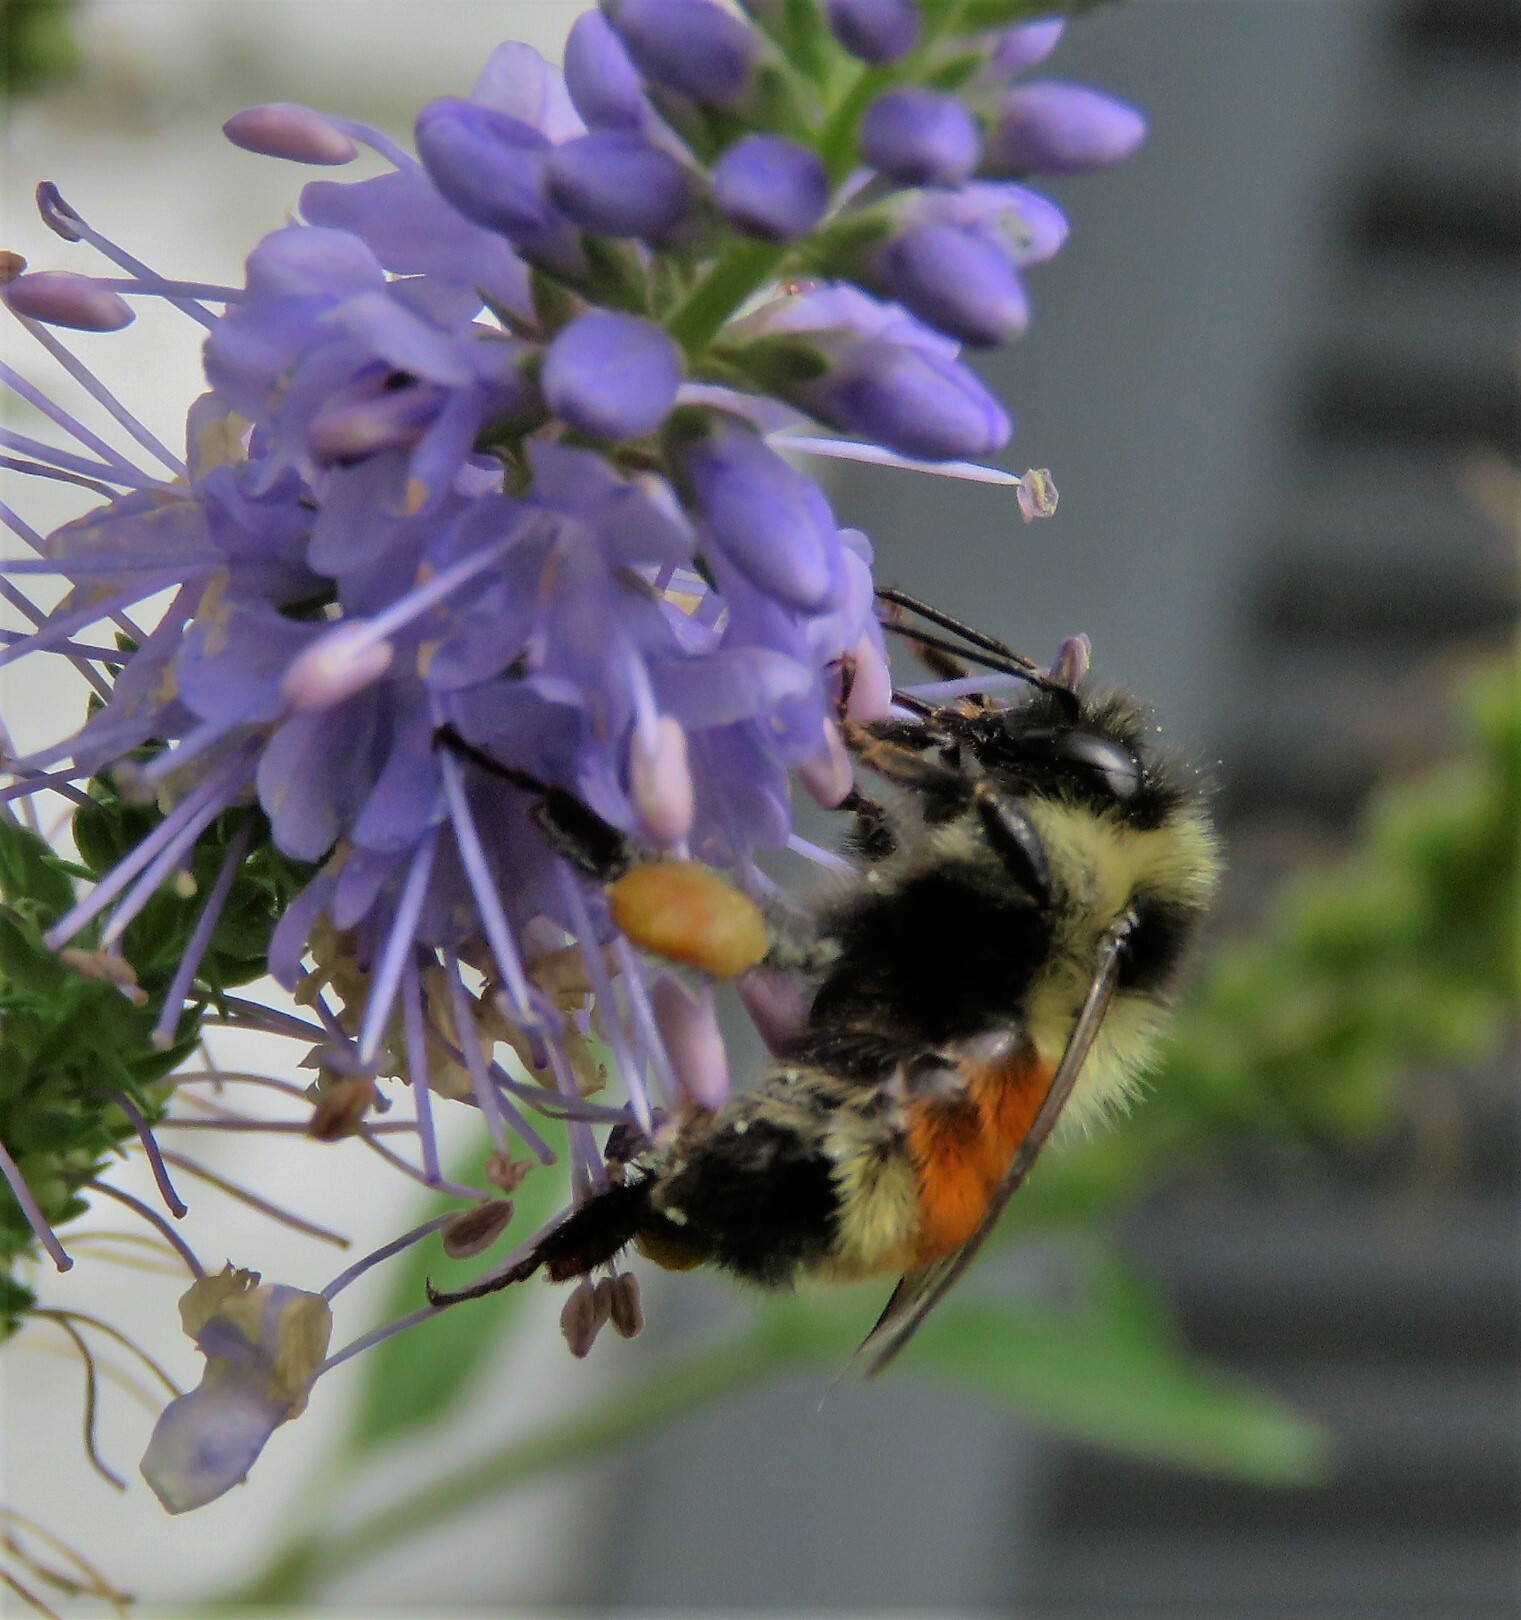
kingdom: Animalia
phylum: Arthropoda
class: Insecta
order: Hymenoptera
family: Apidae
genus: Bombus
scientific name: Bombus ternarius
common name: Tri-colored bumble bee
